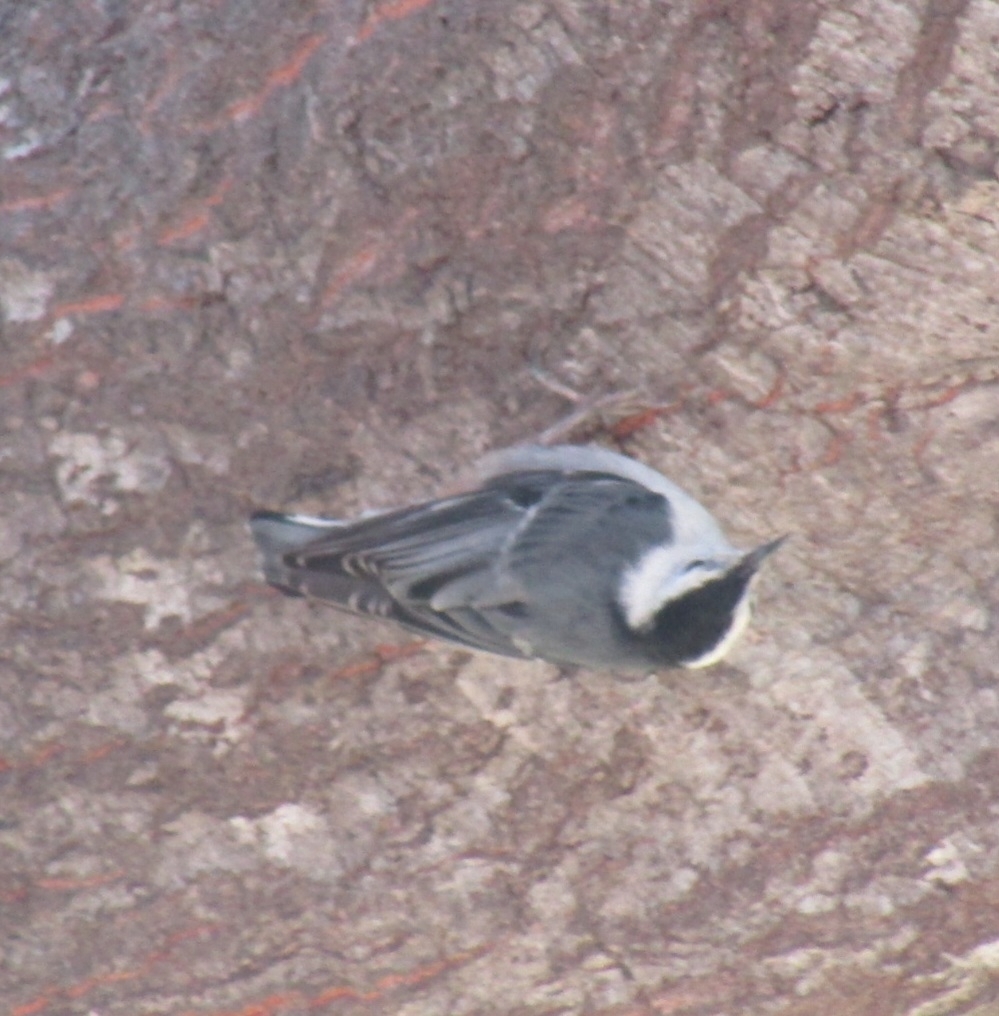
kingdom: Animalia
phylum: Chordata
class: Aves
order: Passeriformes
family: Sittidae
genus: Sitta
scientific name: Sitta carolinensis
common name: White-breasted nuthatch
